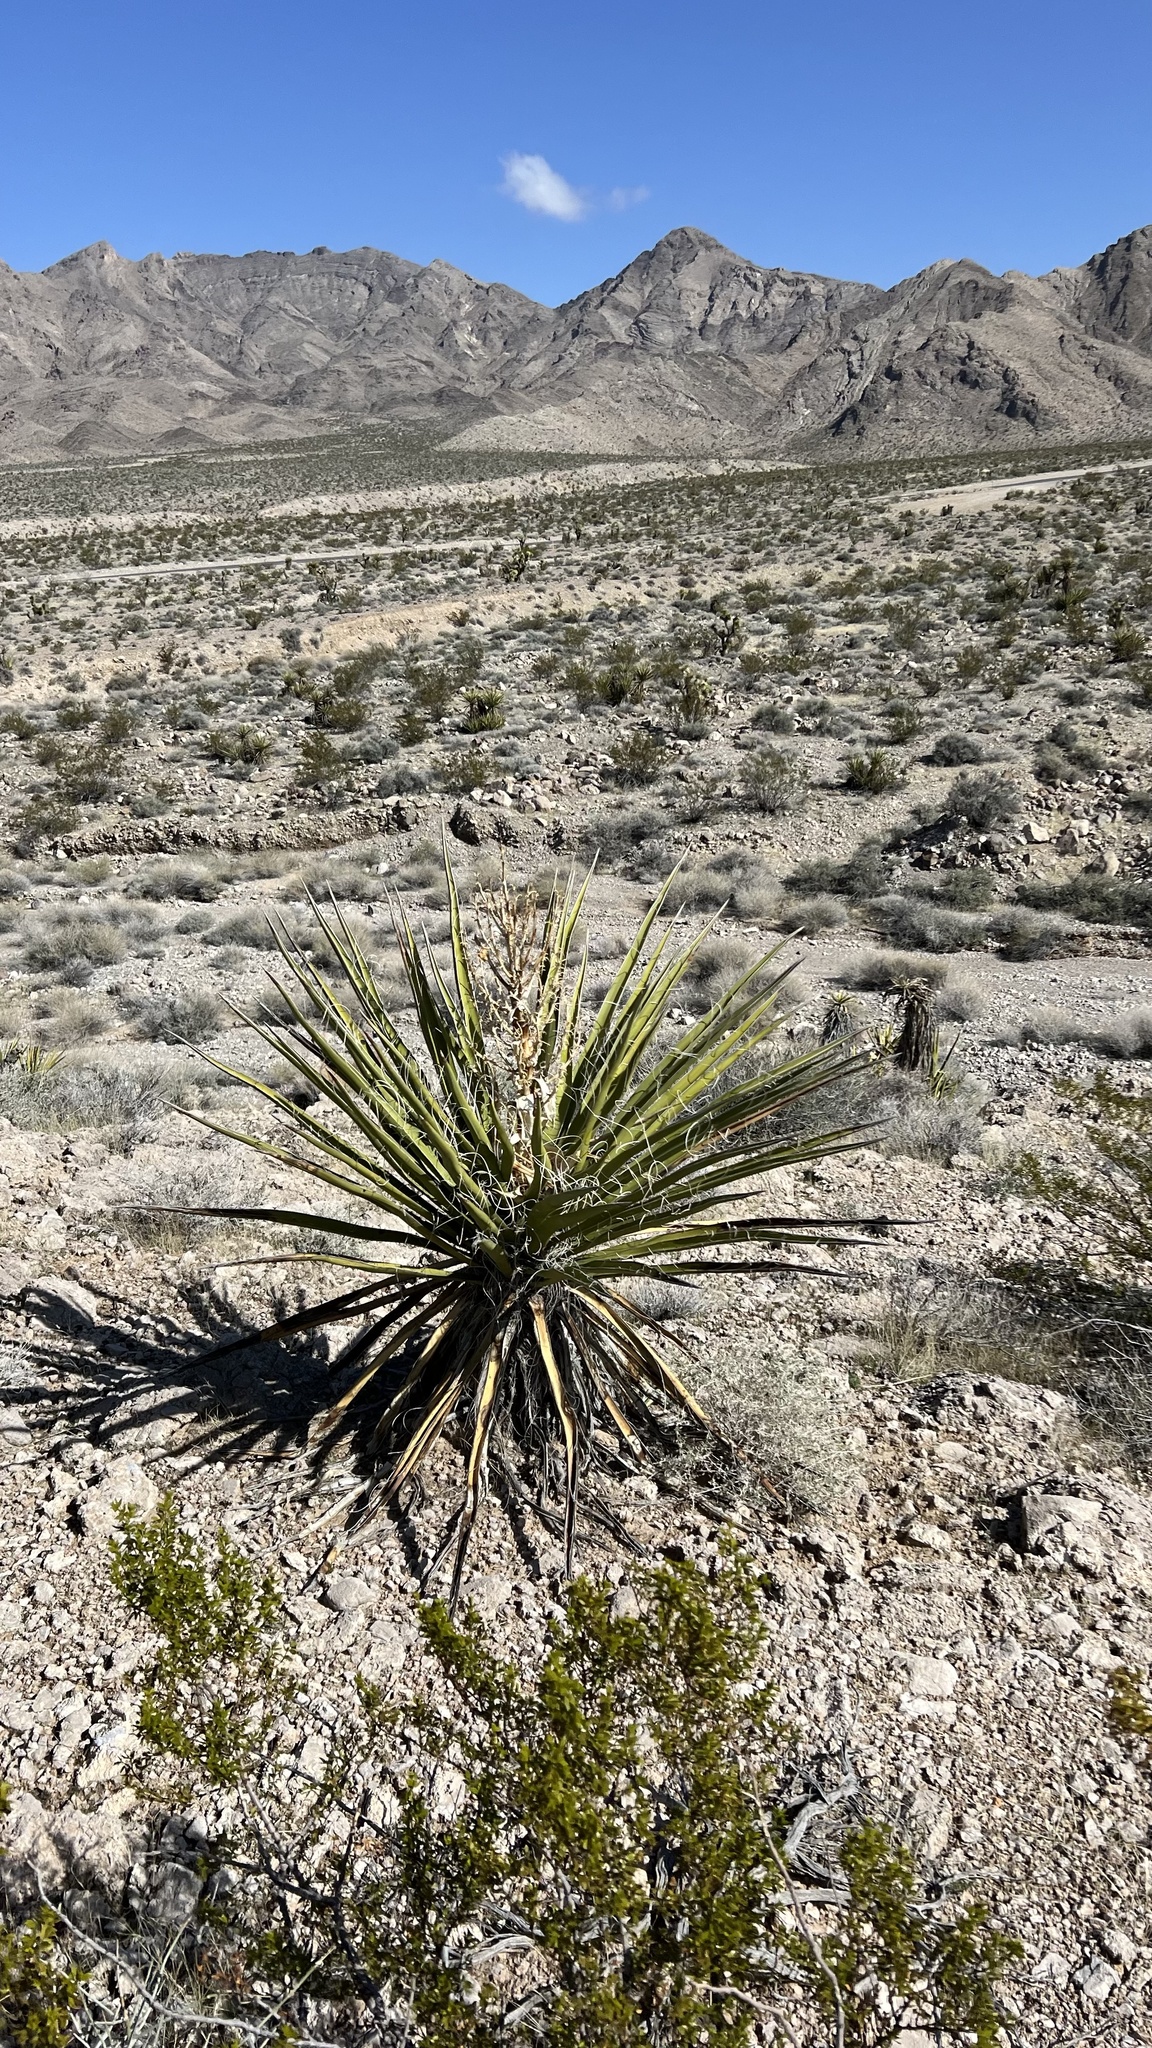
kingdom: Plantae
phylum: Tracheophyta
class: Liliopsida
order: Asparagales
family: Asparagaceae
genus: Yucca
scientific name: Yucca schidigera
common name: Mojave yucca
